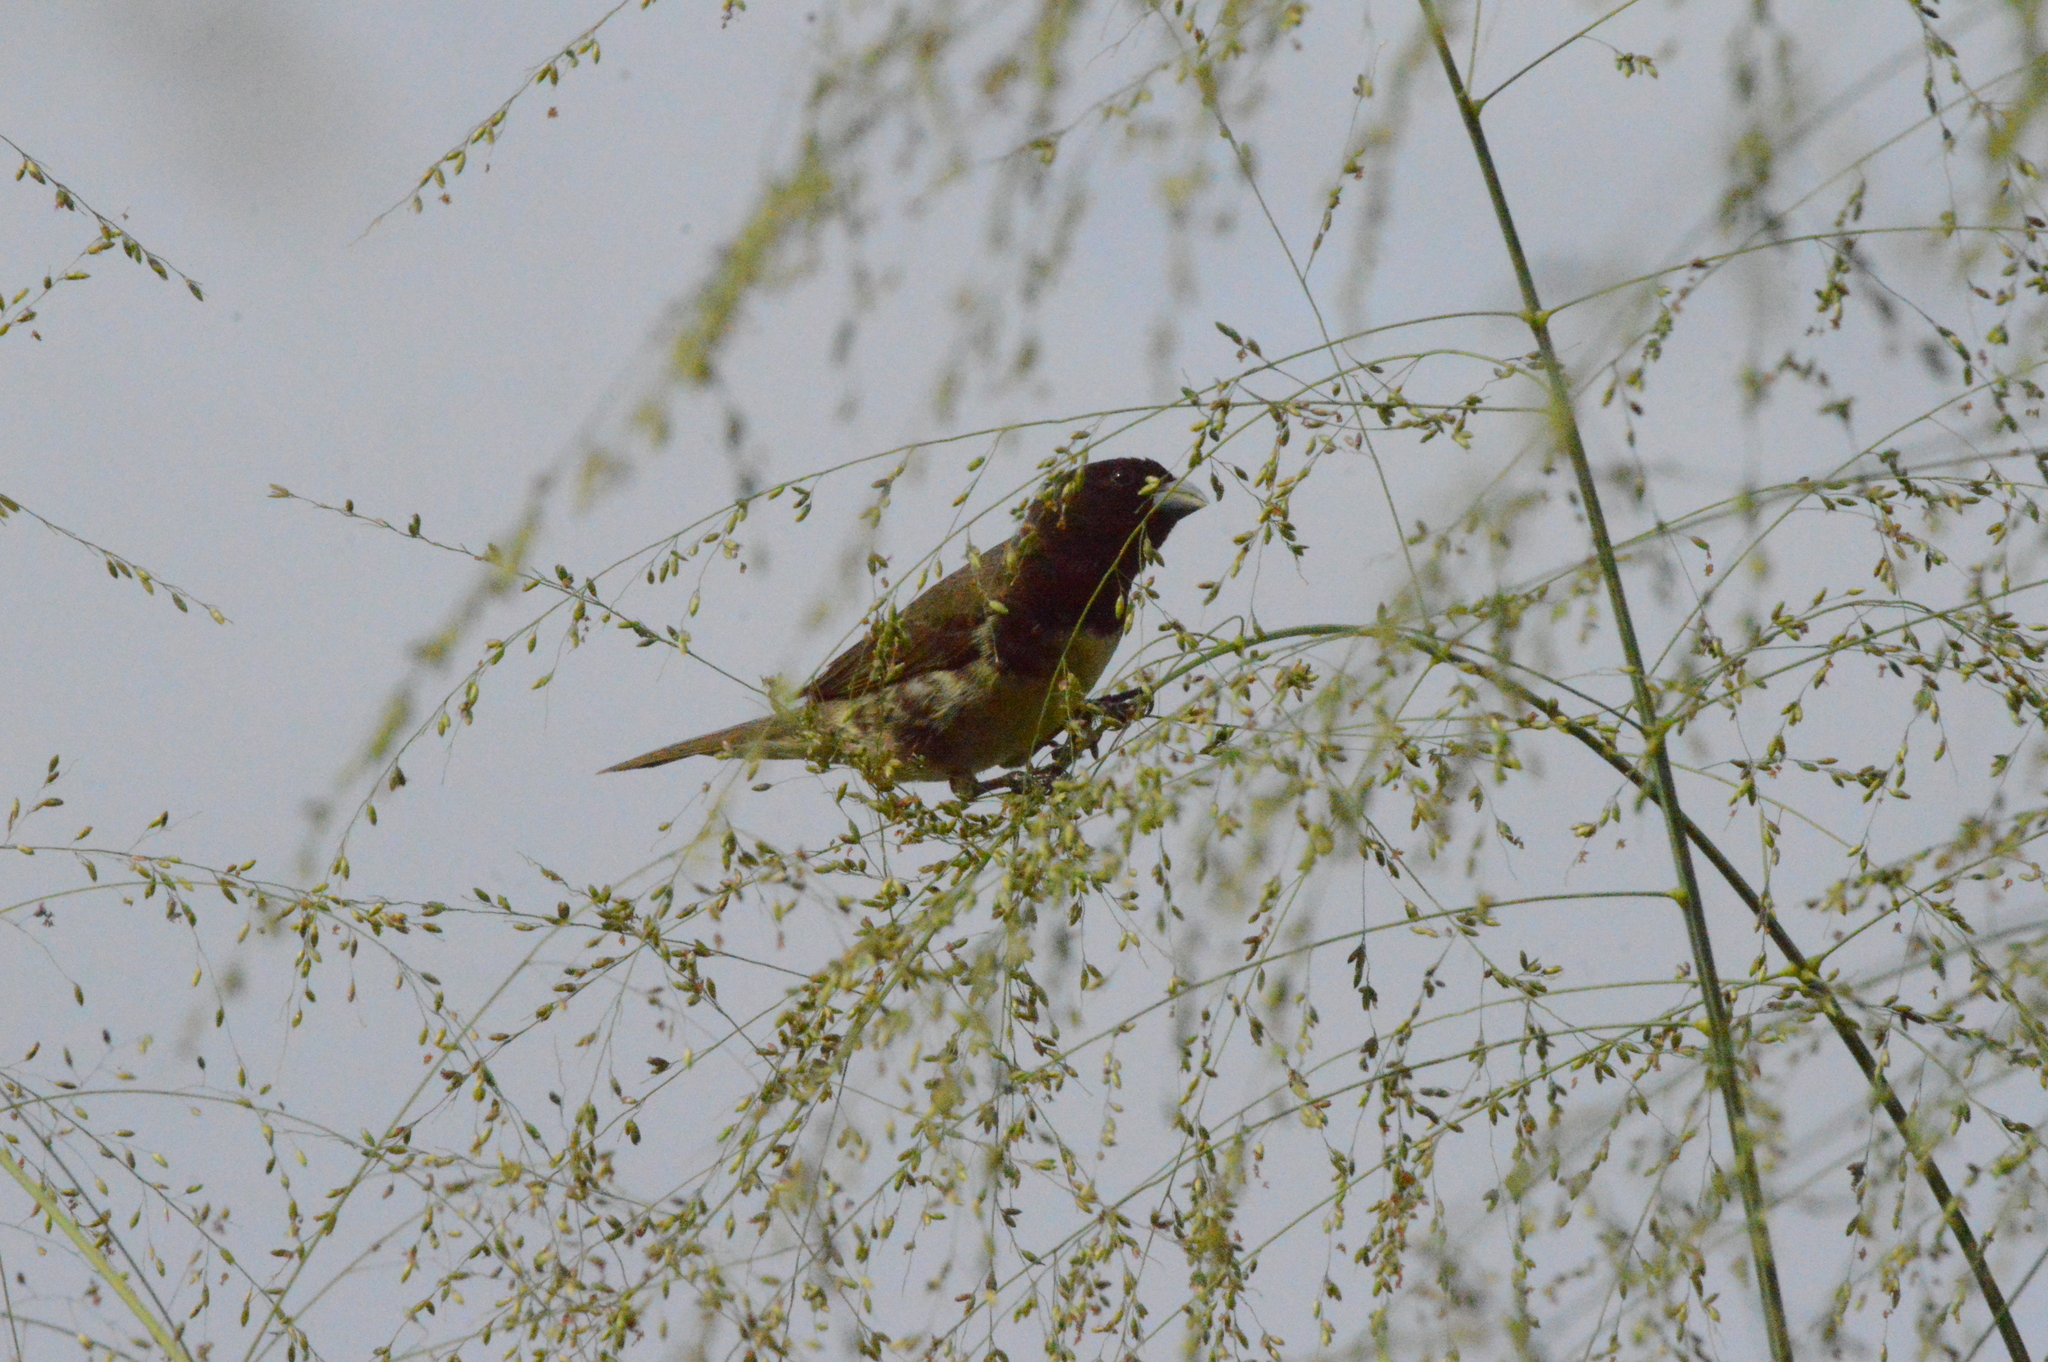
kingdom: Animalia
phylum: Chordata
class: Aves
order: Passeriformes
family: Thraupidae
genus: Sporophila
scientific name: Sporophila nigricollis
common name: Yellow-bellied seedeater
